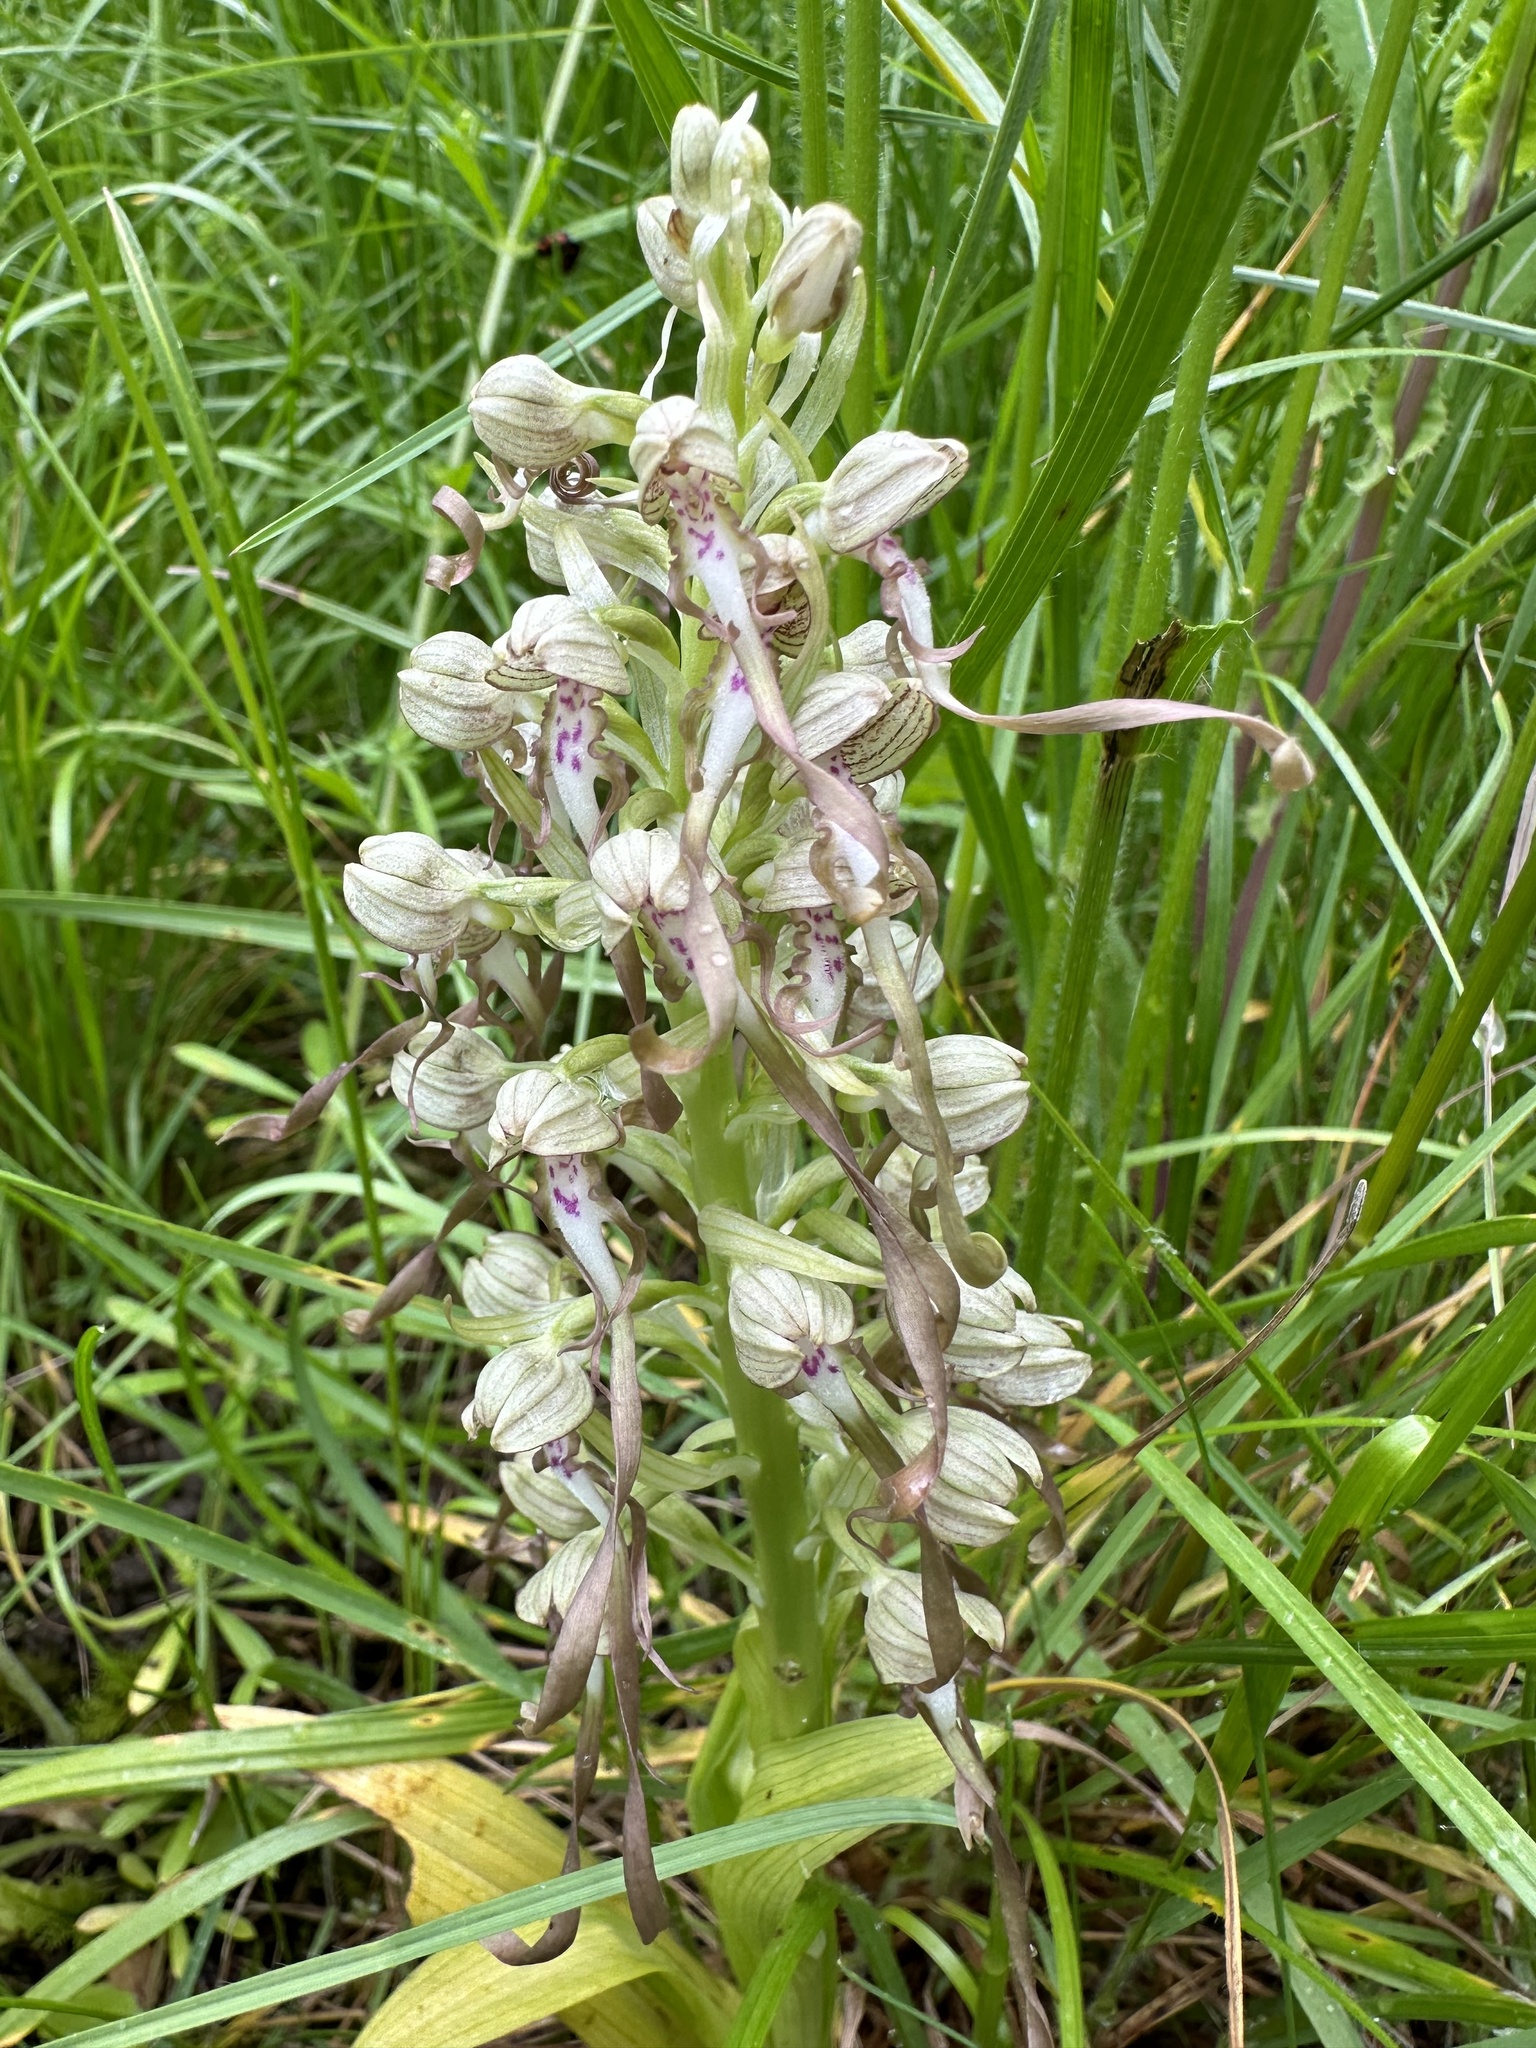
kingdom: Plantae
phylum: Tracheophyta
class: Liliopsida
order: Asparagales
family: Orchidaceae
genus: Himantoglossum
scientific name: Himantoglossum hircinum
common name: Lizard orchid
